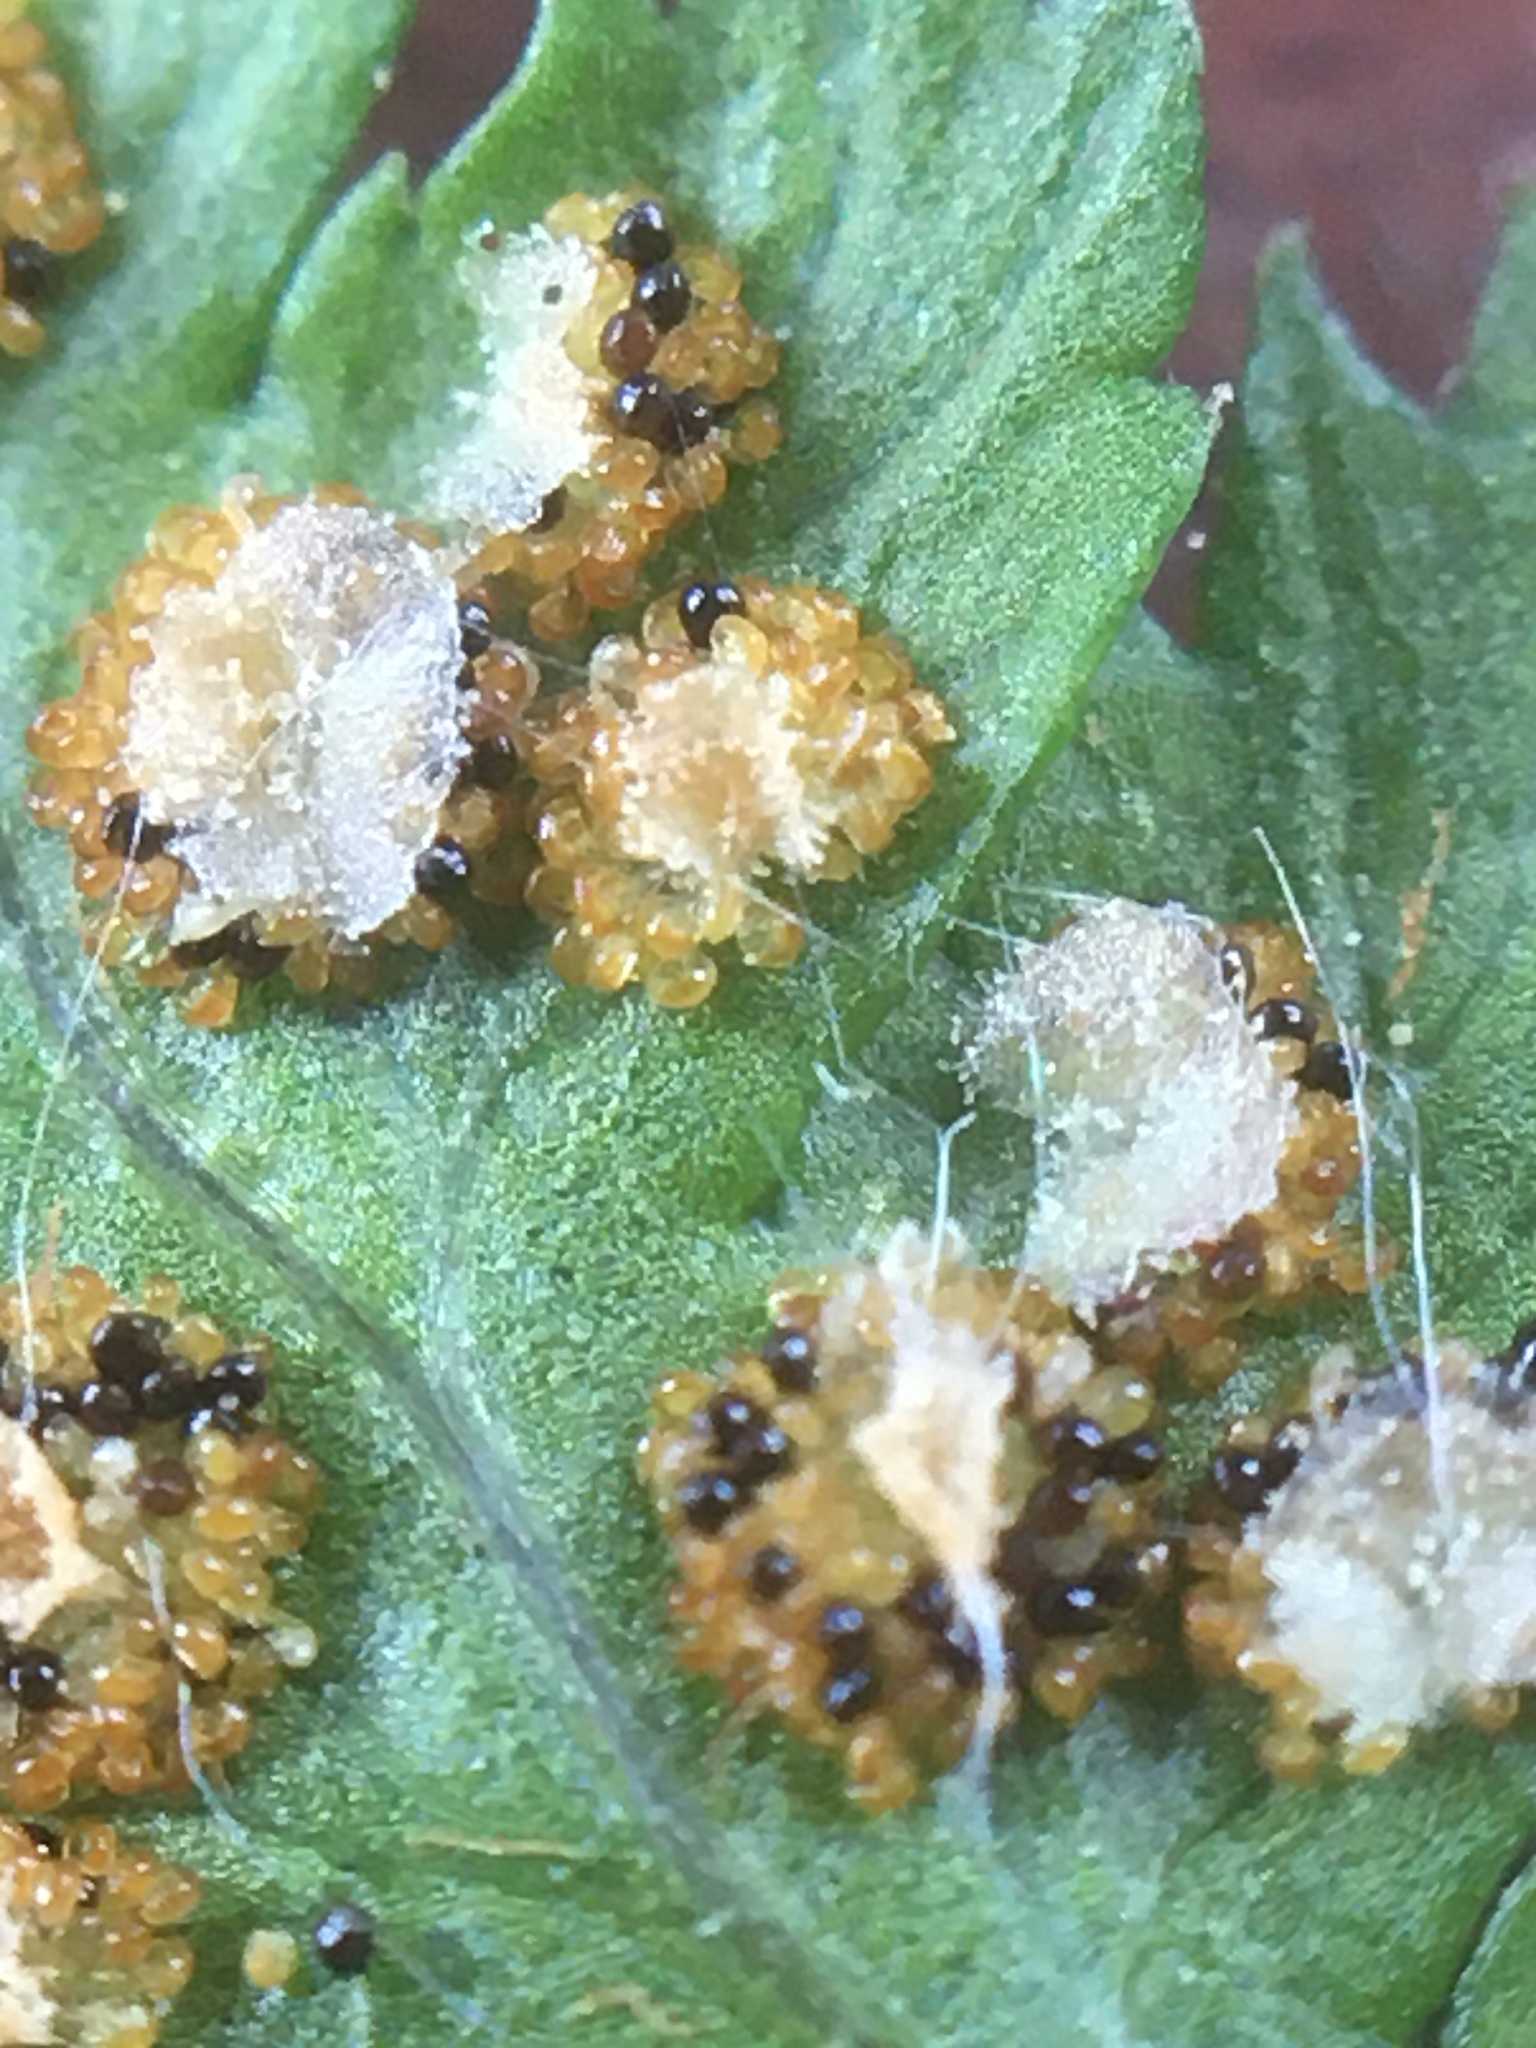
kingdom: Plantae
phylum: Tracheophyta
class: Polypodiopsida
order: Polypodiales
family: Dryopteridaceae
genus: Dryopteris
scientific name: Dryopteris boottii
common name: Boott's fern
